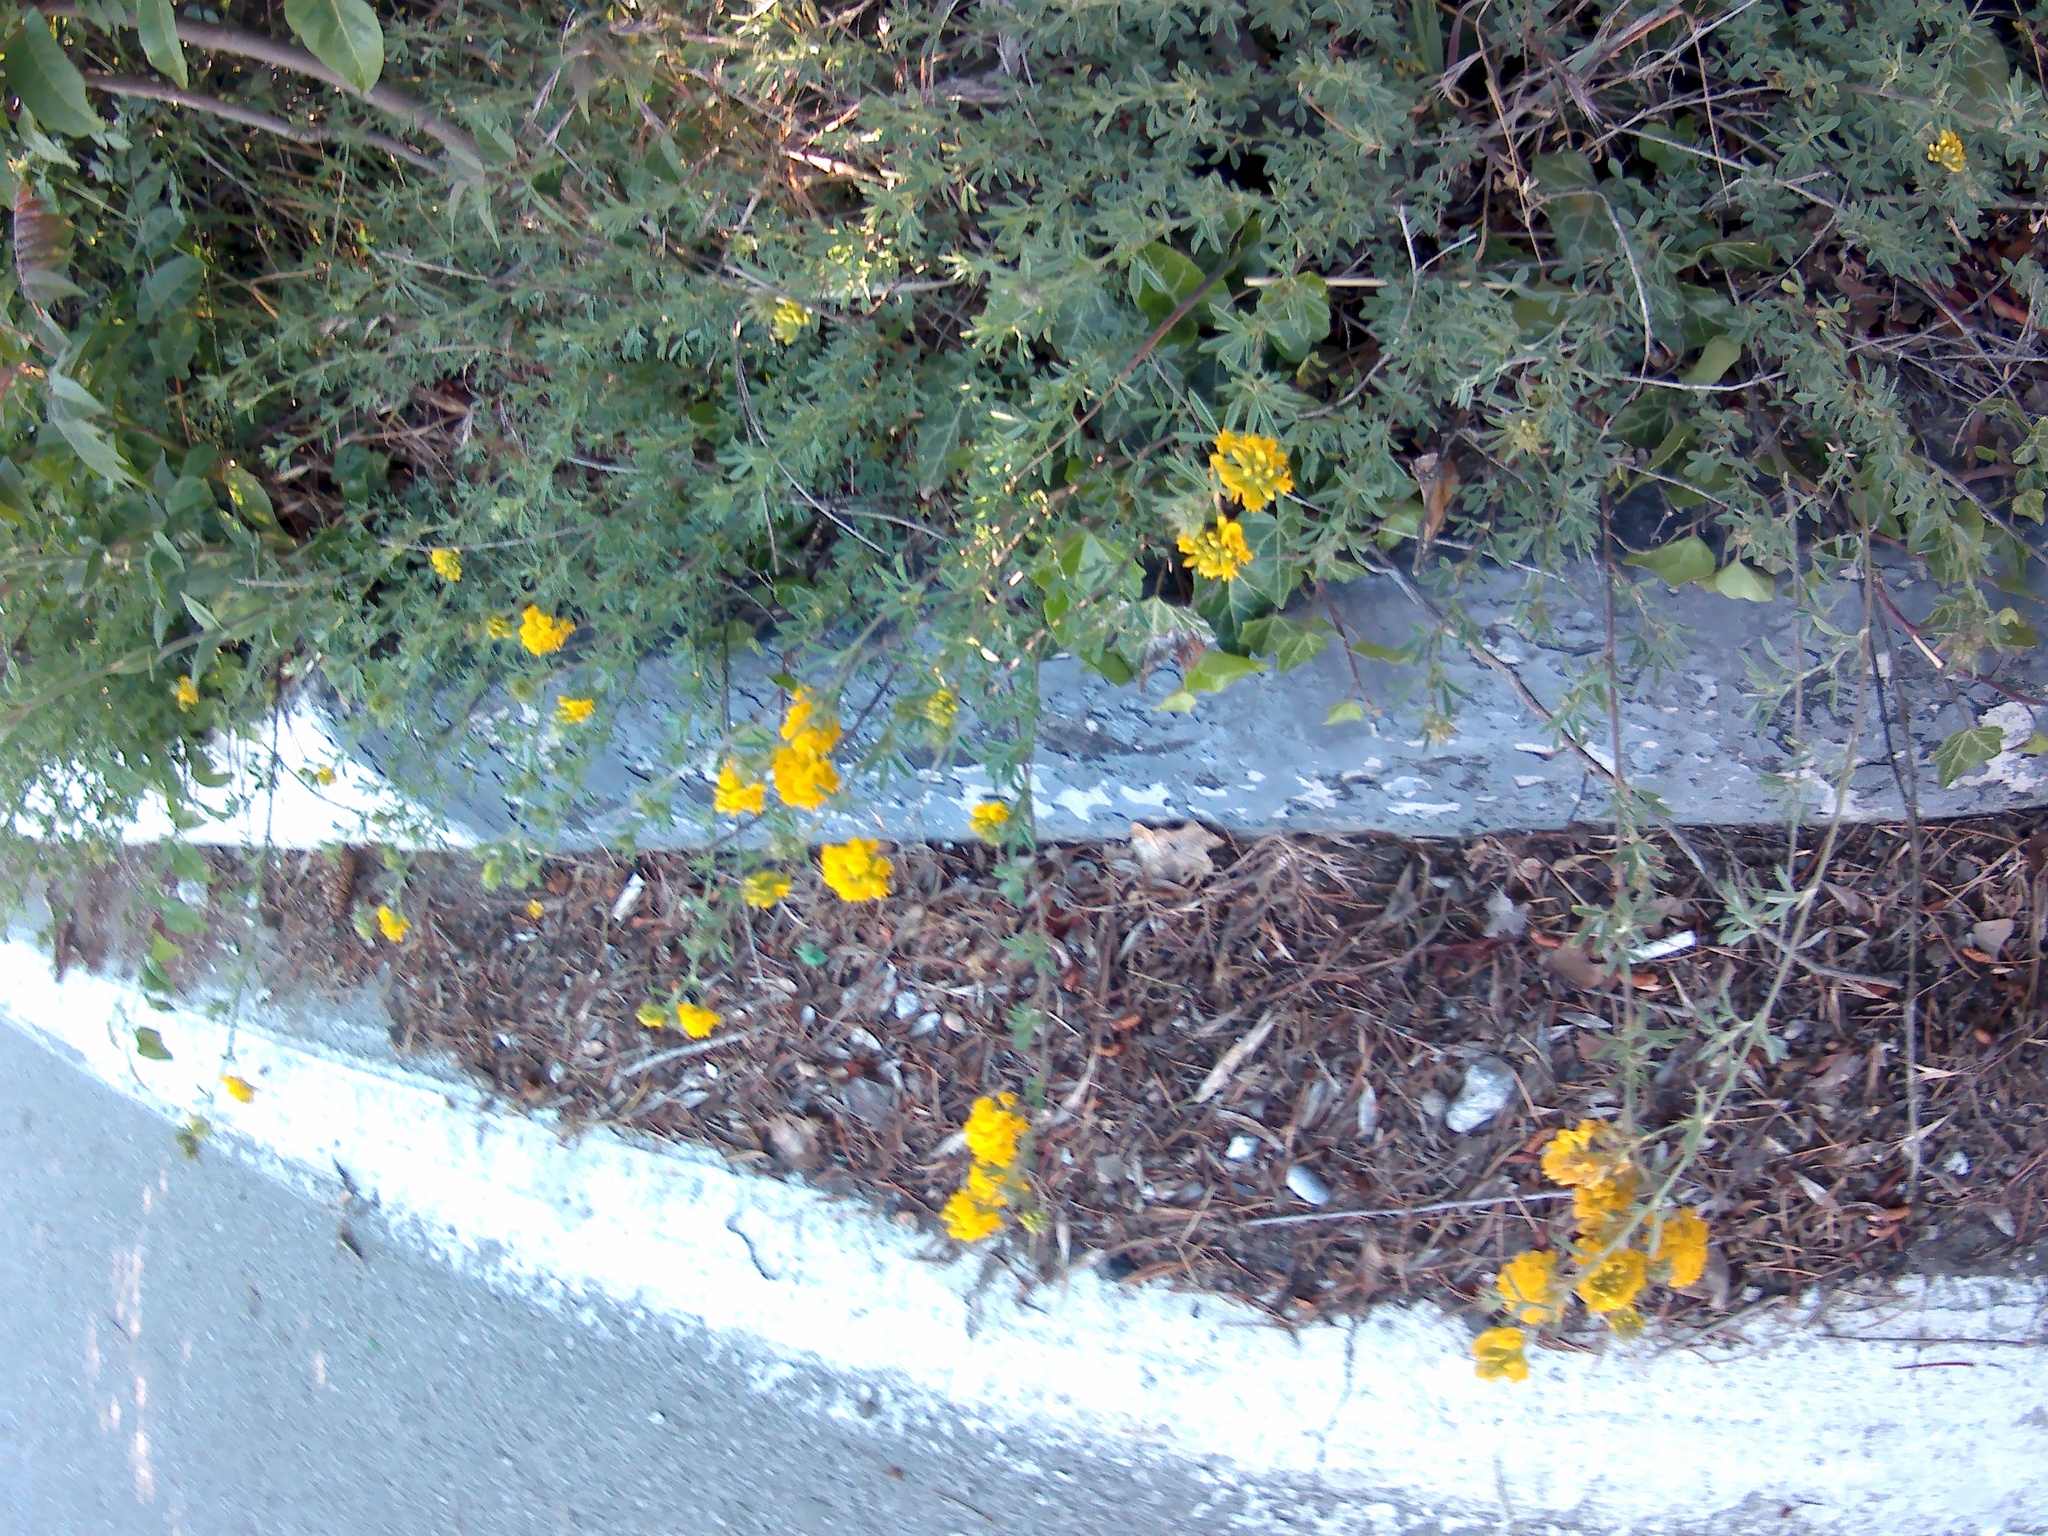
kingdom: Plantae
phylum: Tracheophyta
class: Magnoliopsida
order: Fabales
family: Fabaceae
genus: Medicago
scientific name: Medicago falcata
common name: Sickle medick
